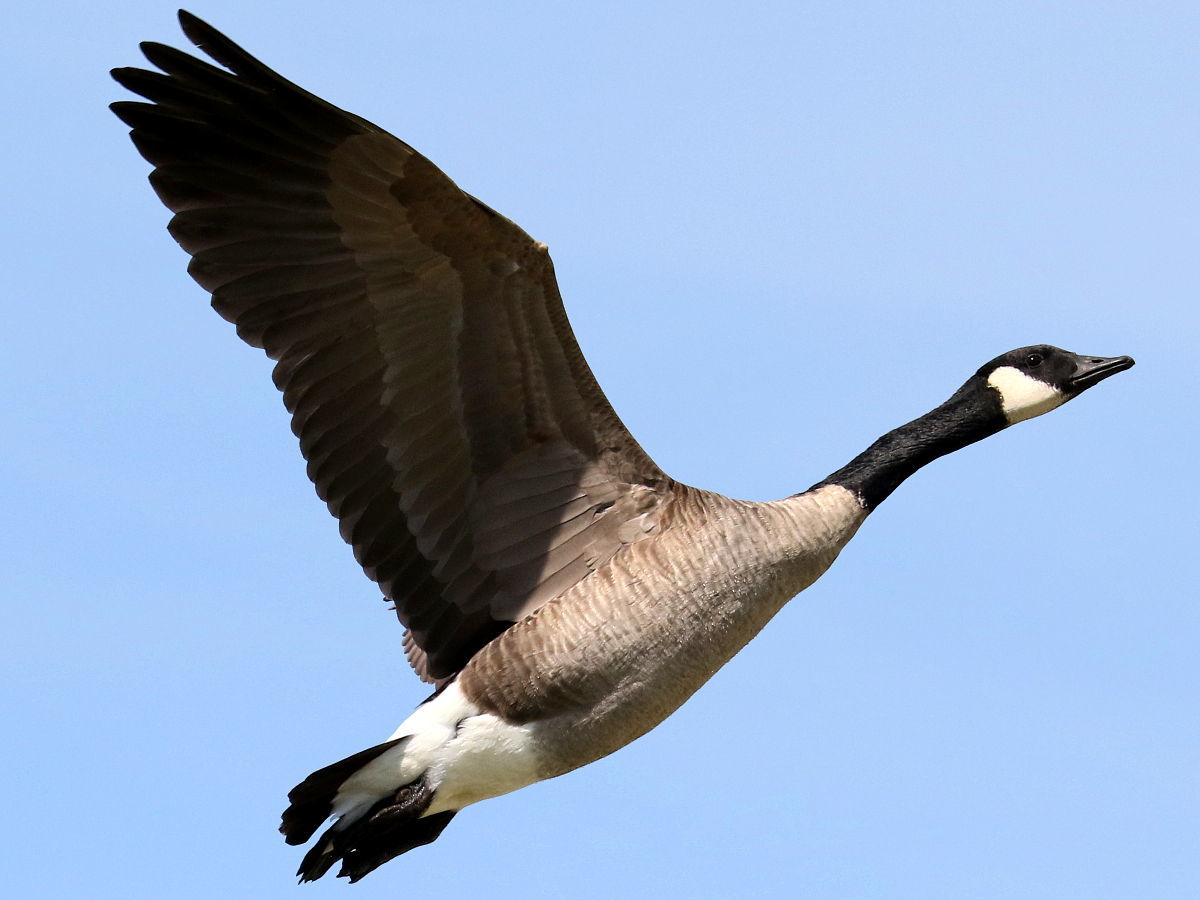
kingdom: Animalia
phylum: Chordata
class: Aves
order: Anseriformes
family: Anatidae
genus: Branta
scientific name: Branta canadensis
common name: Canada goose
